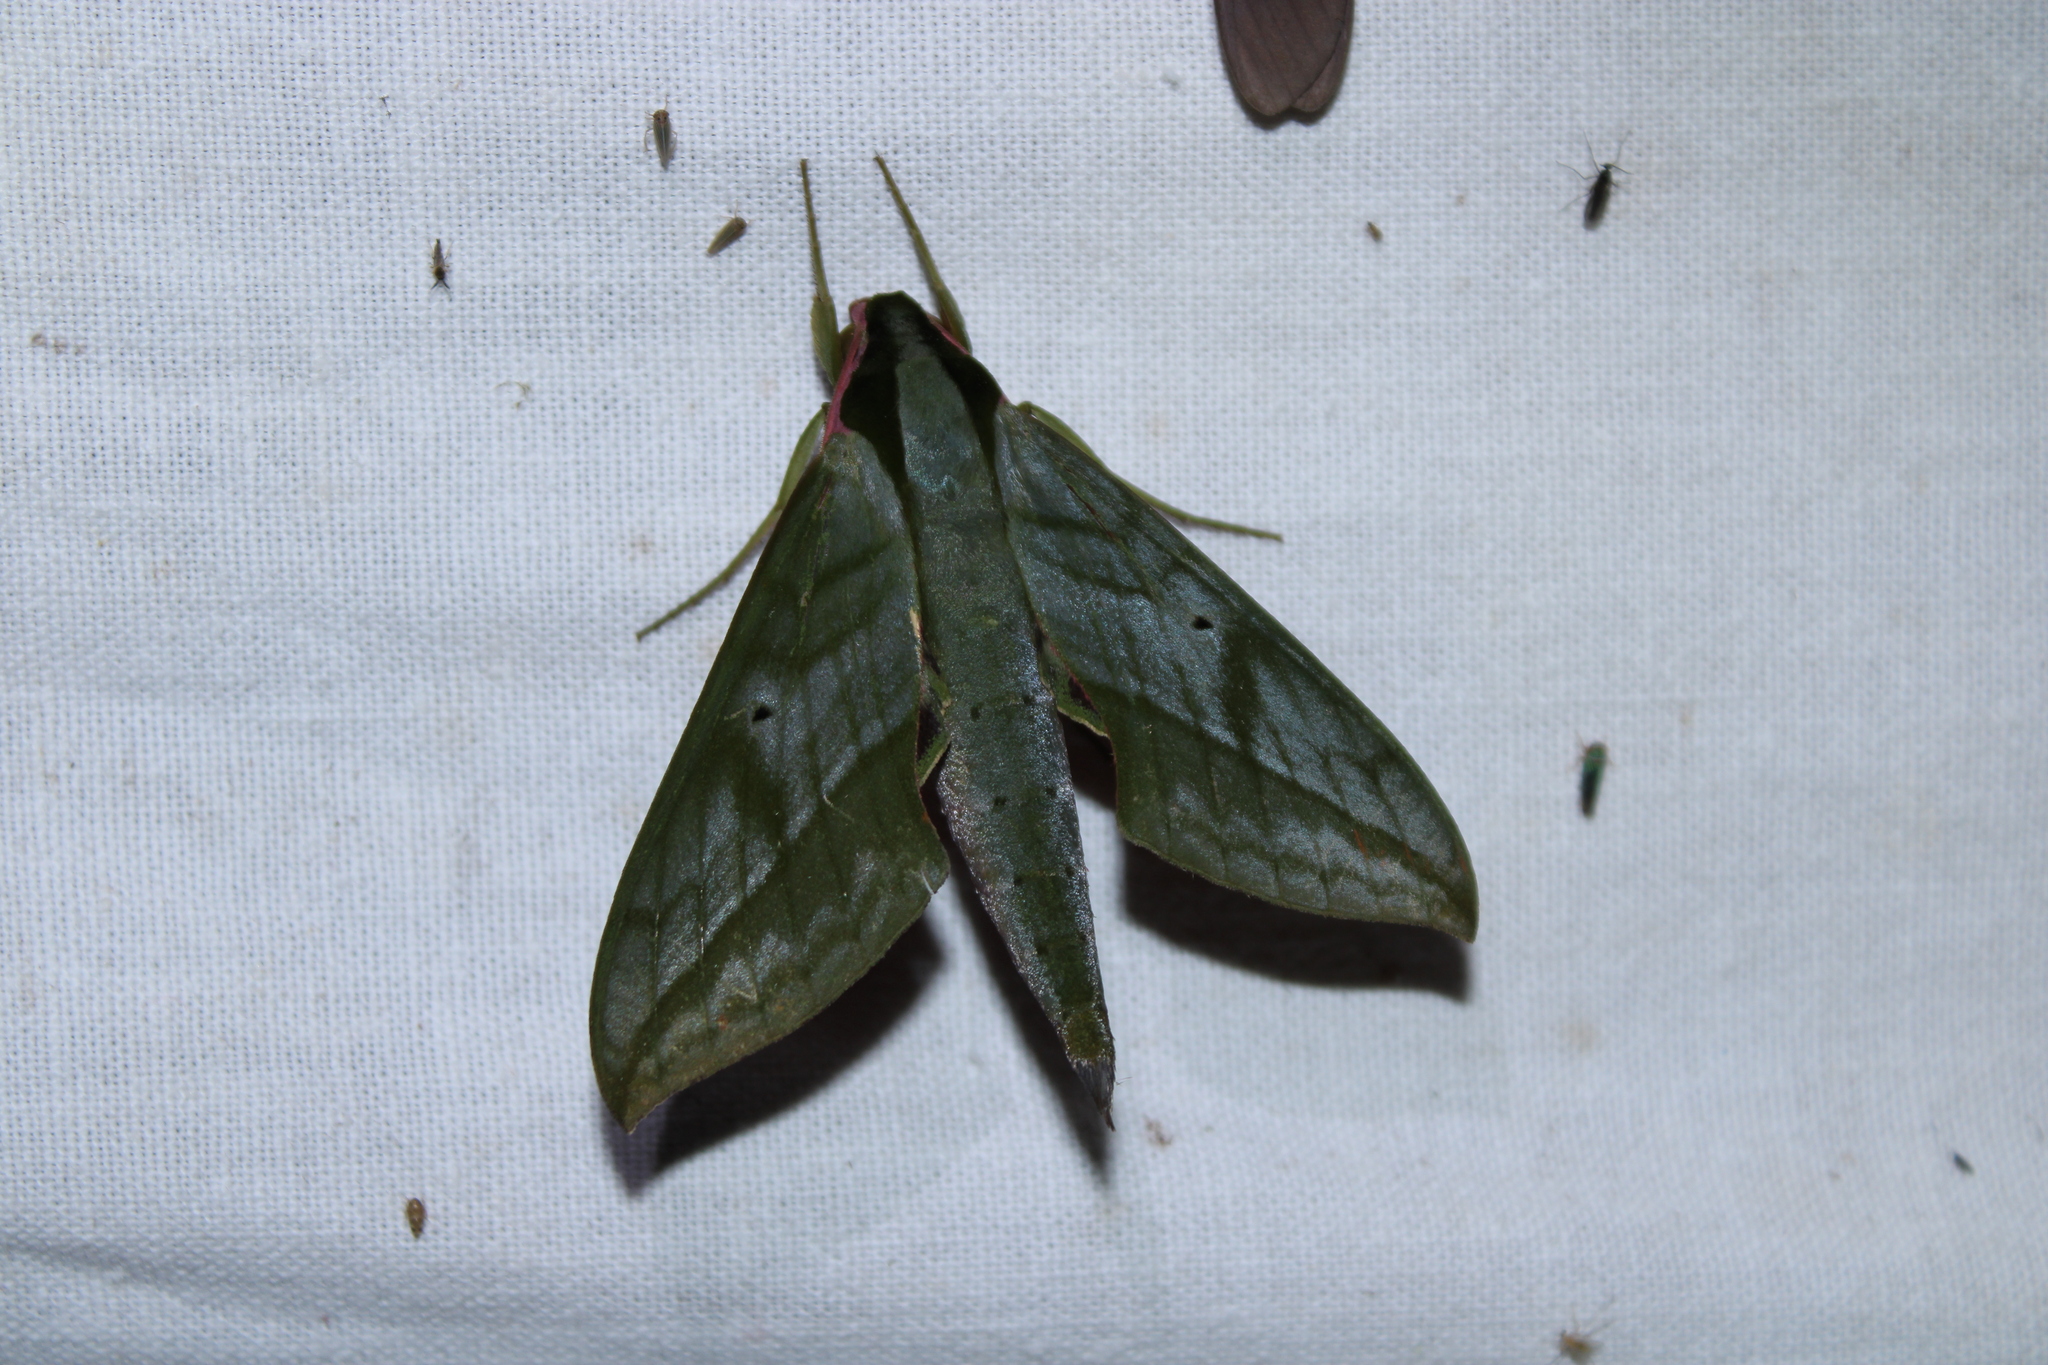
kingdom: Animalia
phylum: Arthropoda
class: Insecta
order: Lepidoptera
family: Sphingidae
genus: Xylophanes
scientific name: Xylophanes belti
